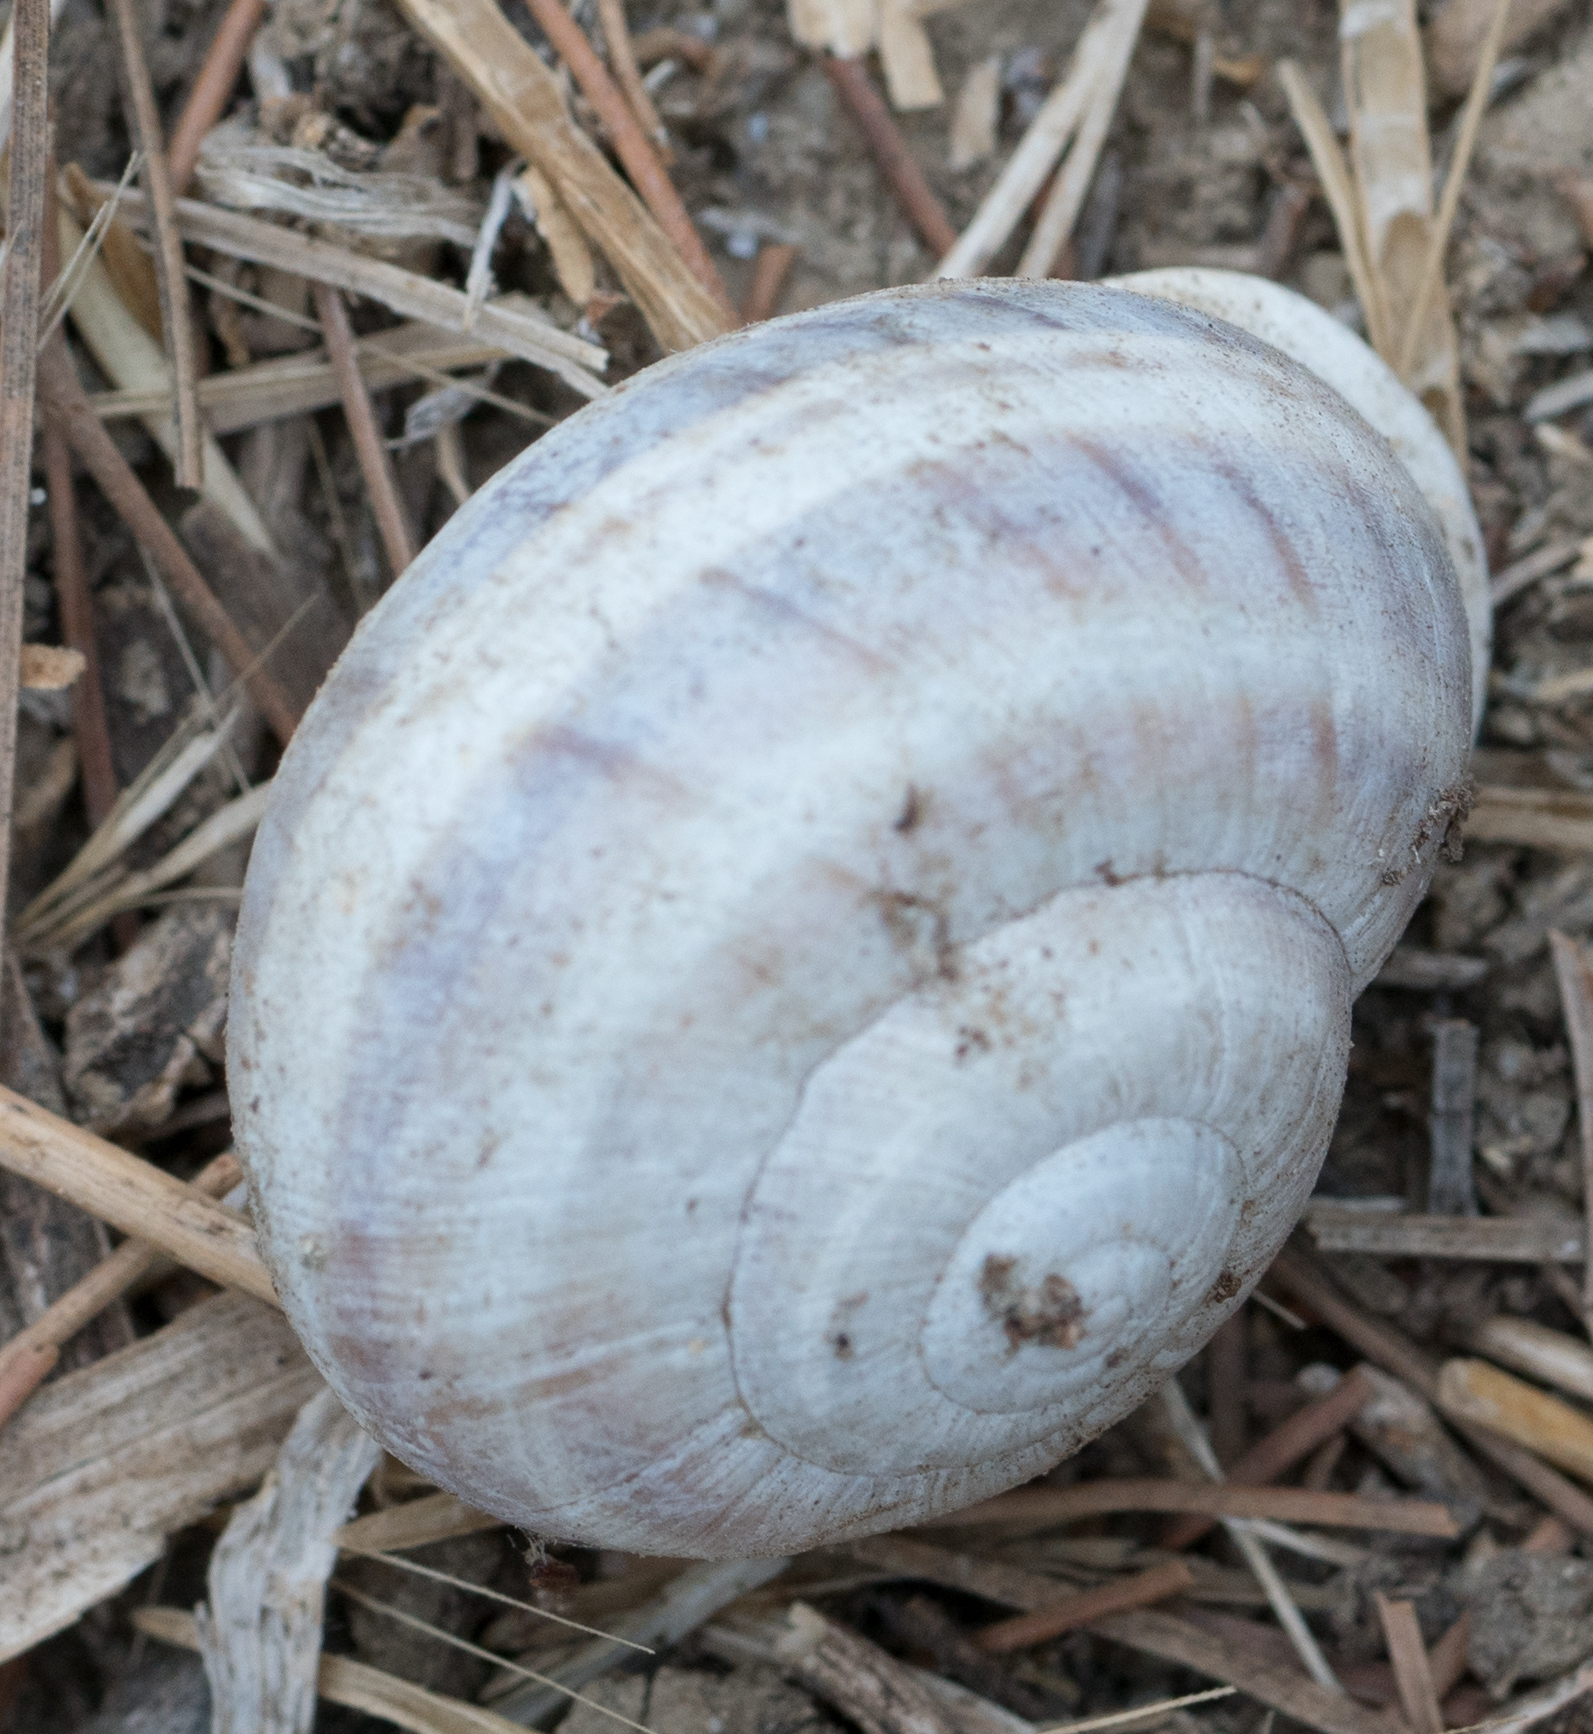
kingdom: Animalia
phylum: Mollusca
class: Gastropoda
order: Stylommatophora
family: Helicidae
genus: Otala
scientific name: Otala lactea
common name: Milk snail
